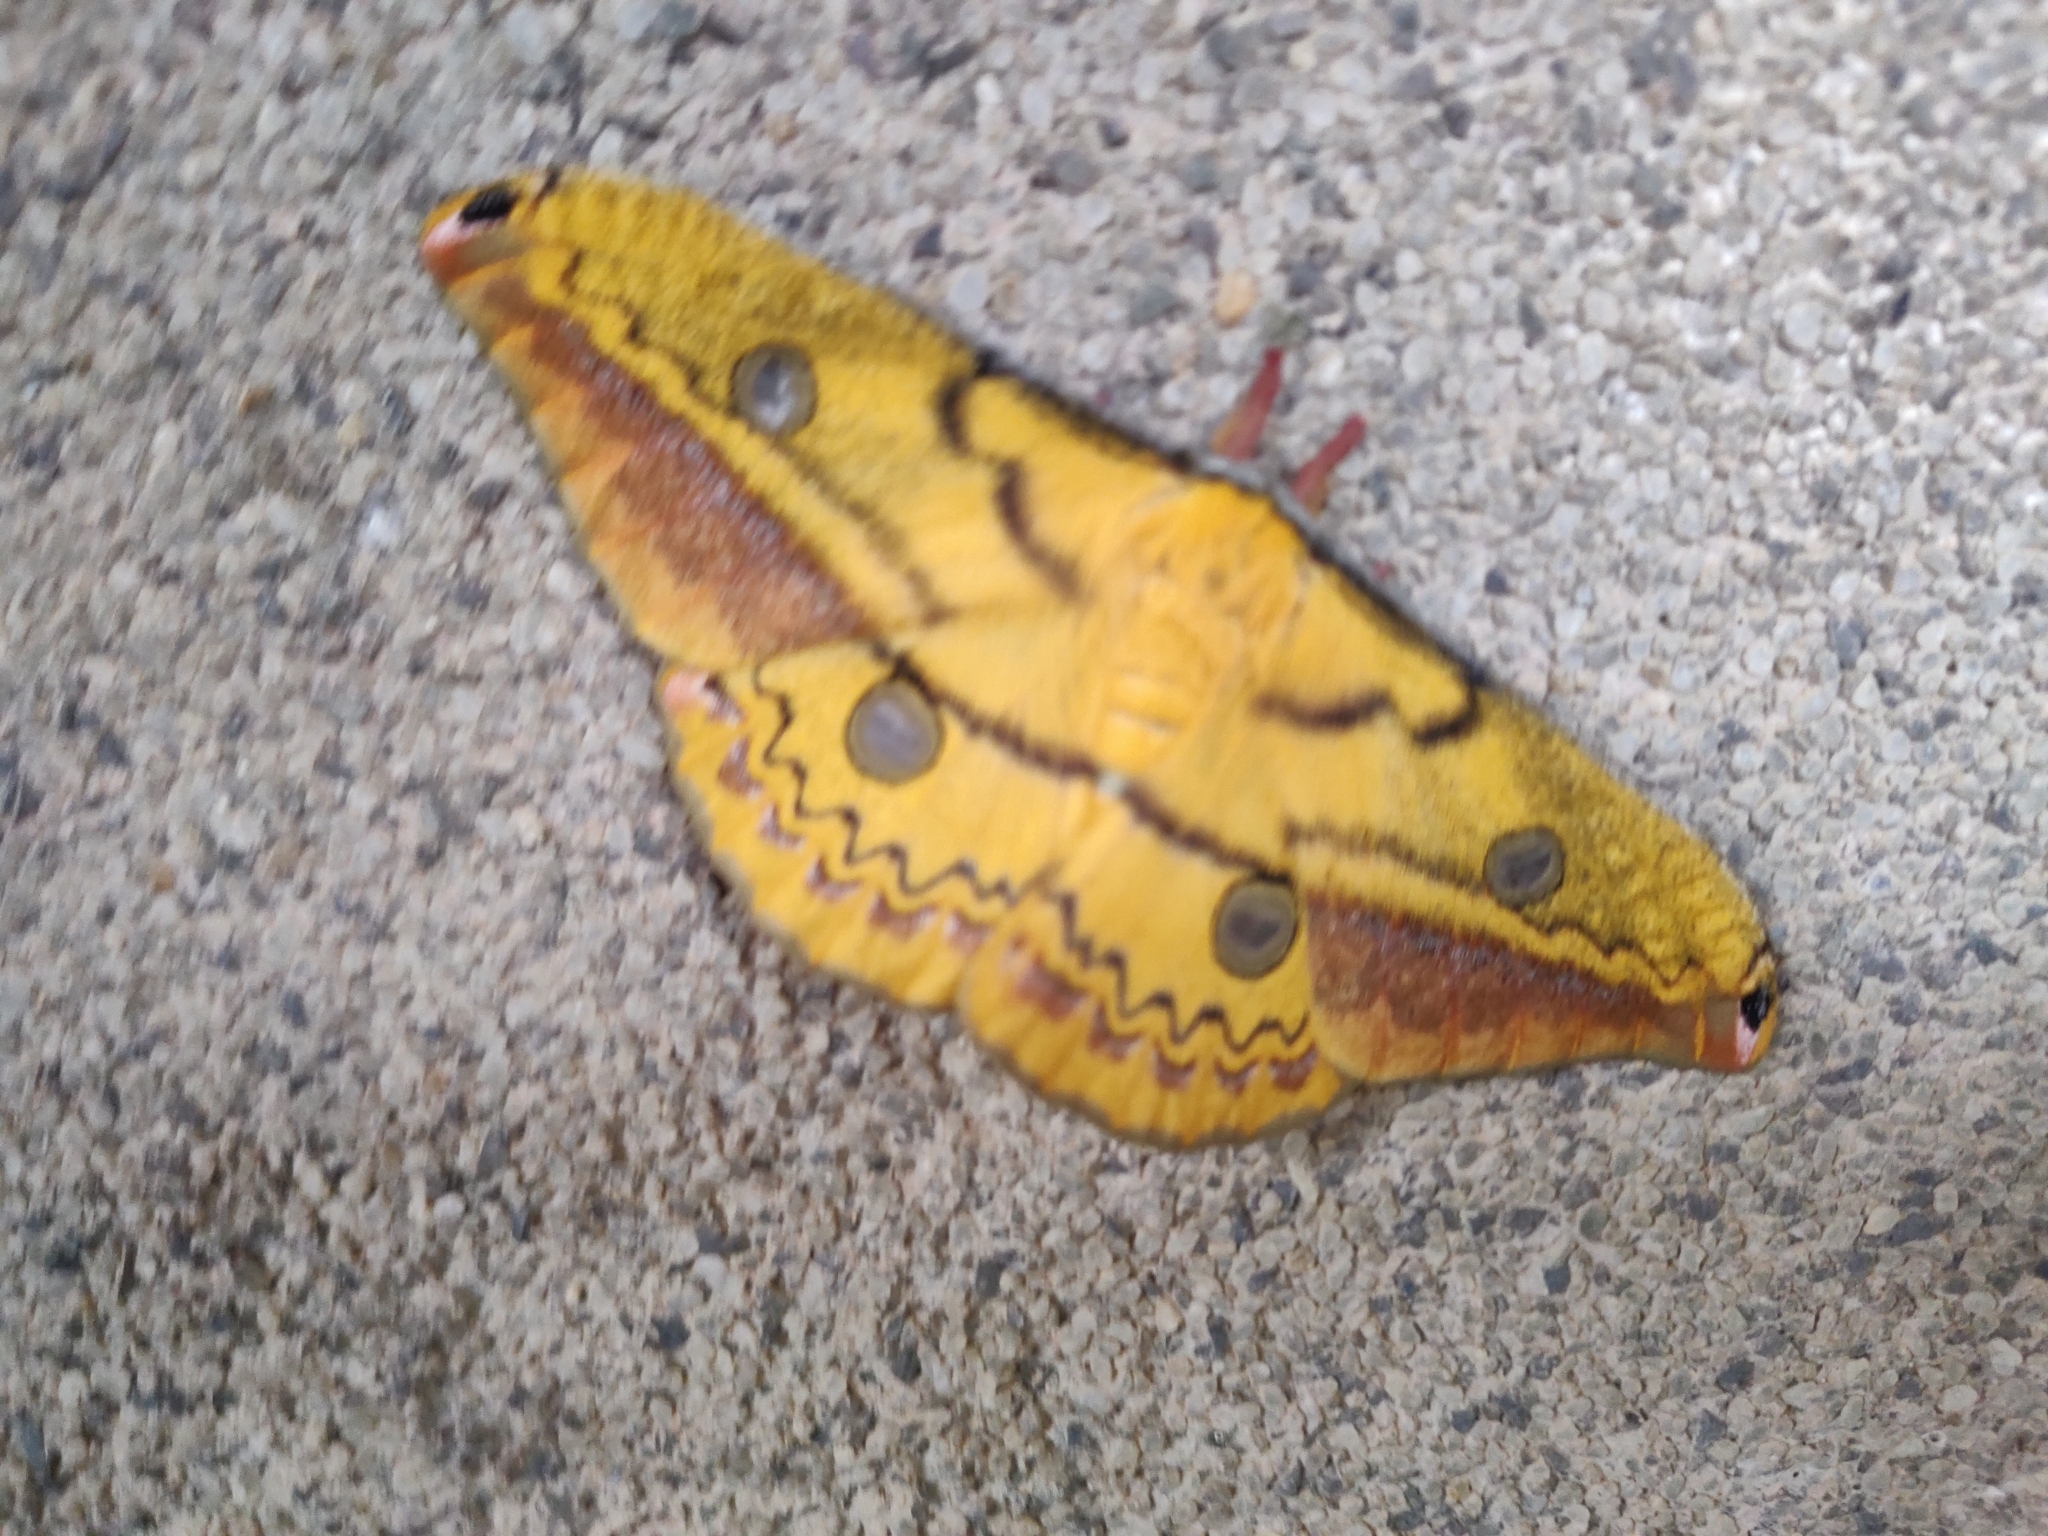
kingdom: Animalia
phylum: Arthropoda
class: Insecta
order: Lepidoptera
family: Saturniidae
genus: Copaxa
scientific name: Copaxa flavina
